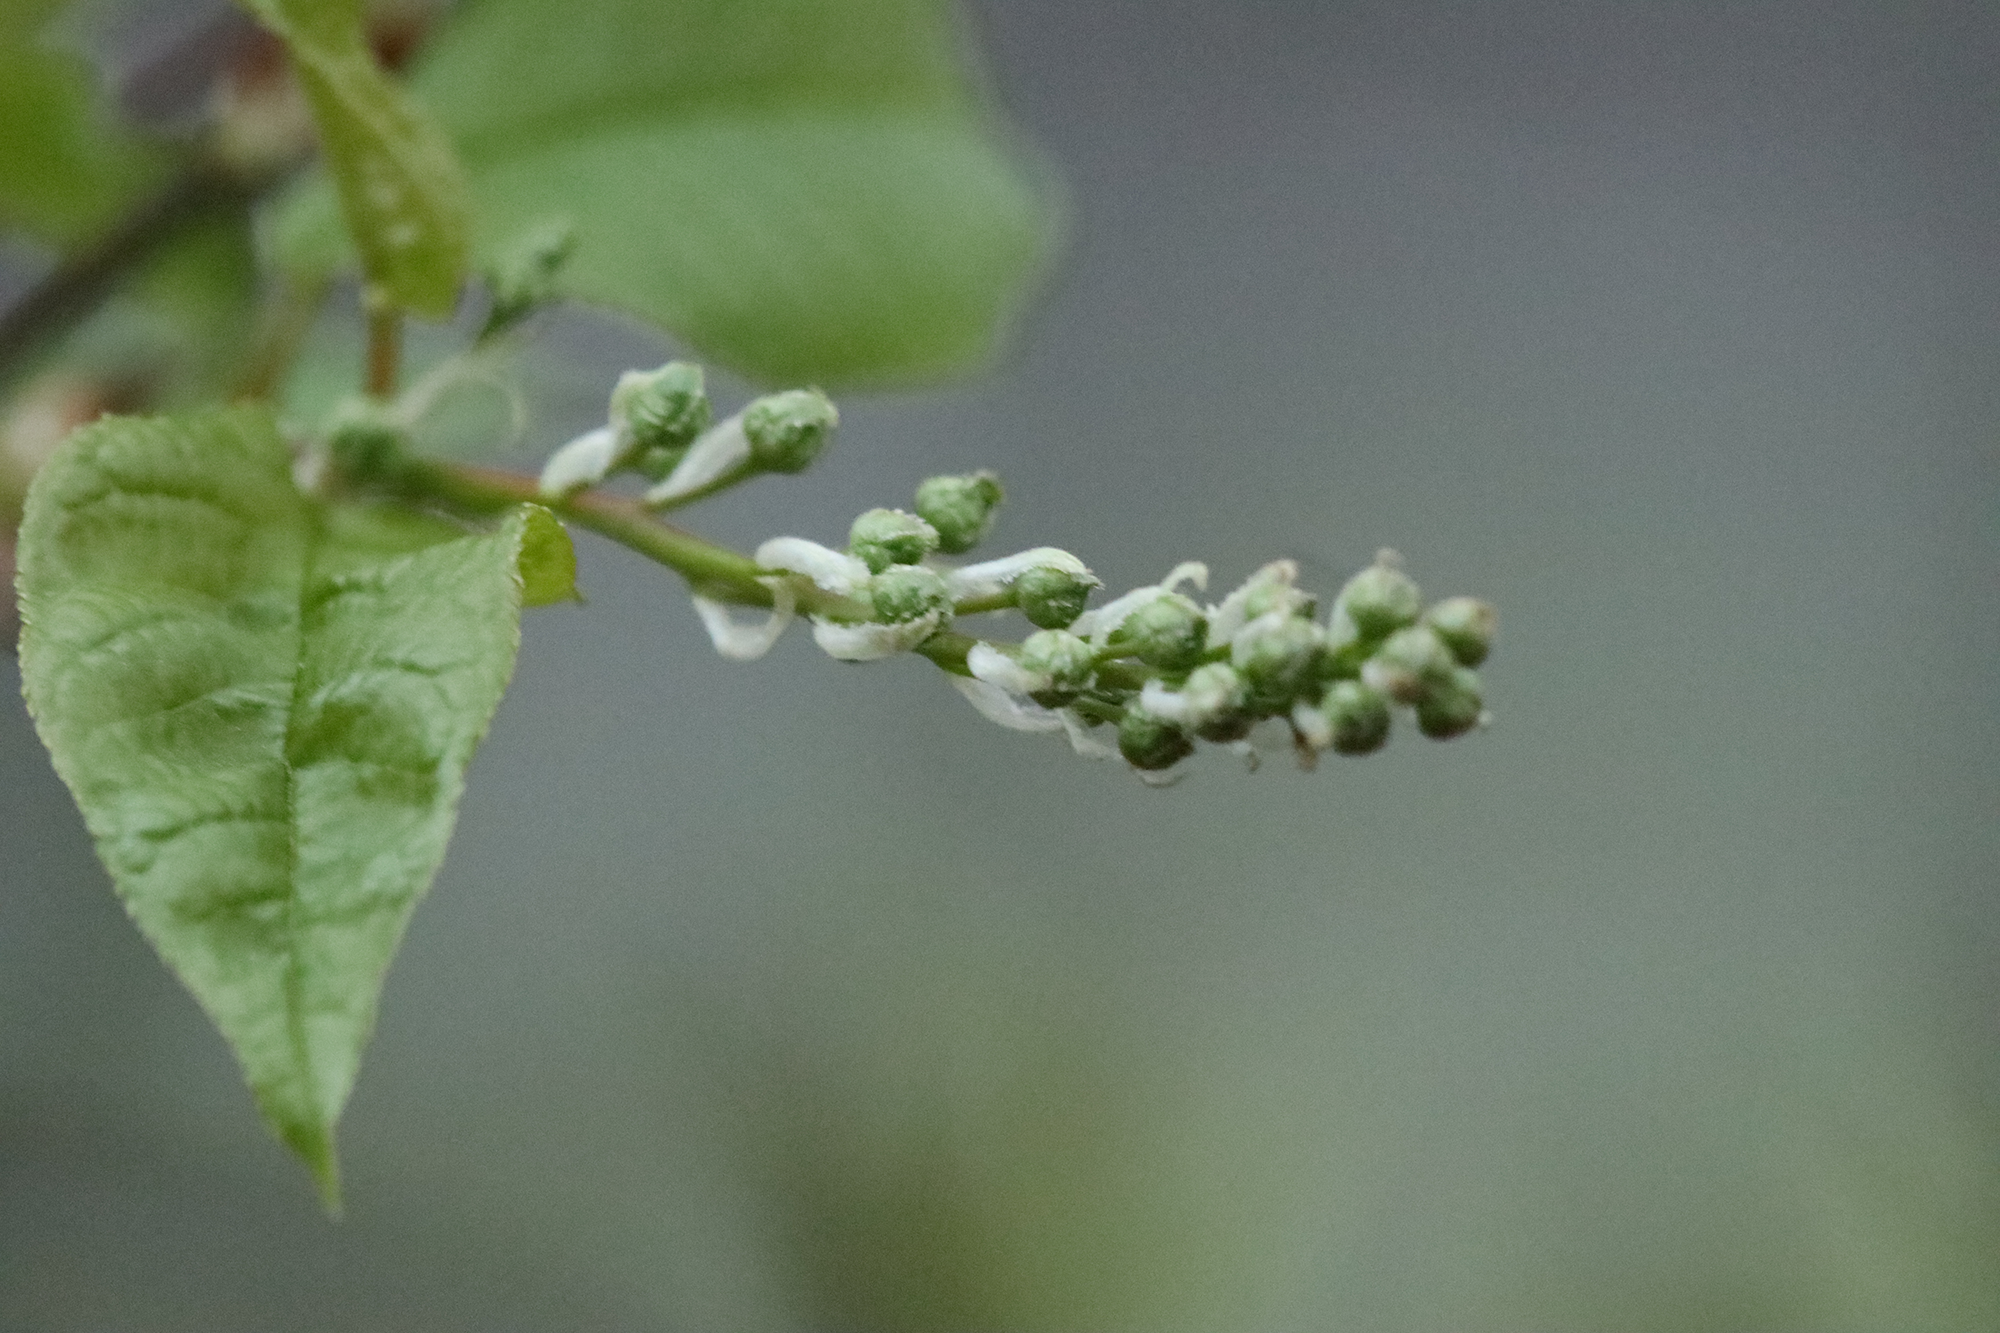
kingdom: Plantae
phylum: Tracheophyta
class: Magnoliopsida
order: Rosales
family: Rosaceae
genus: Prunus
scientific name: Prunus padus
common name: Bird cherry
